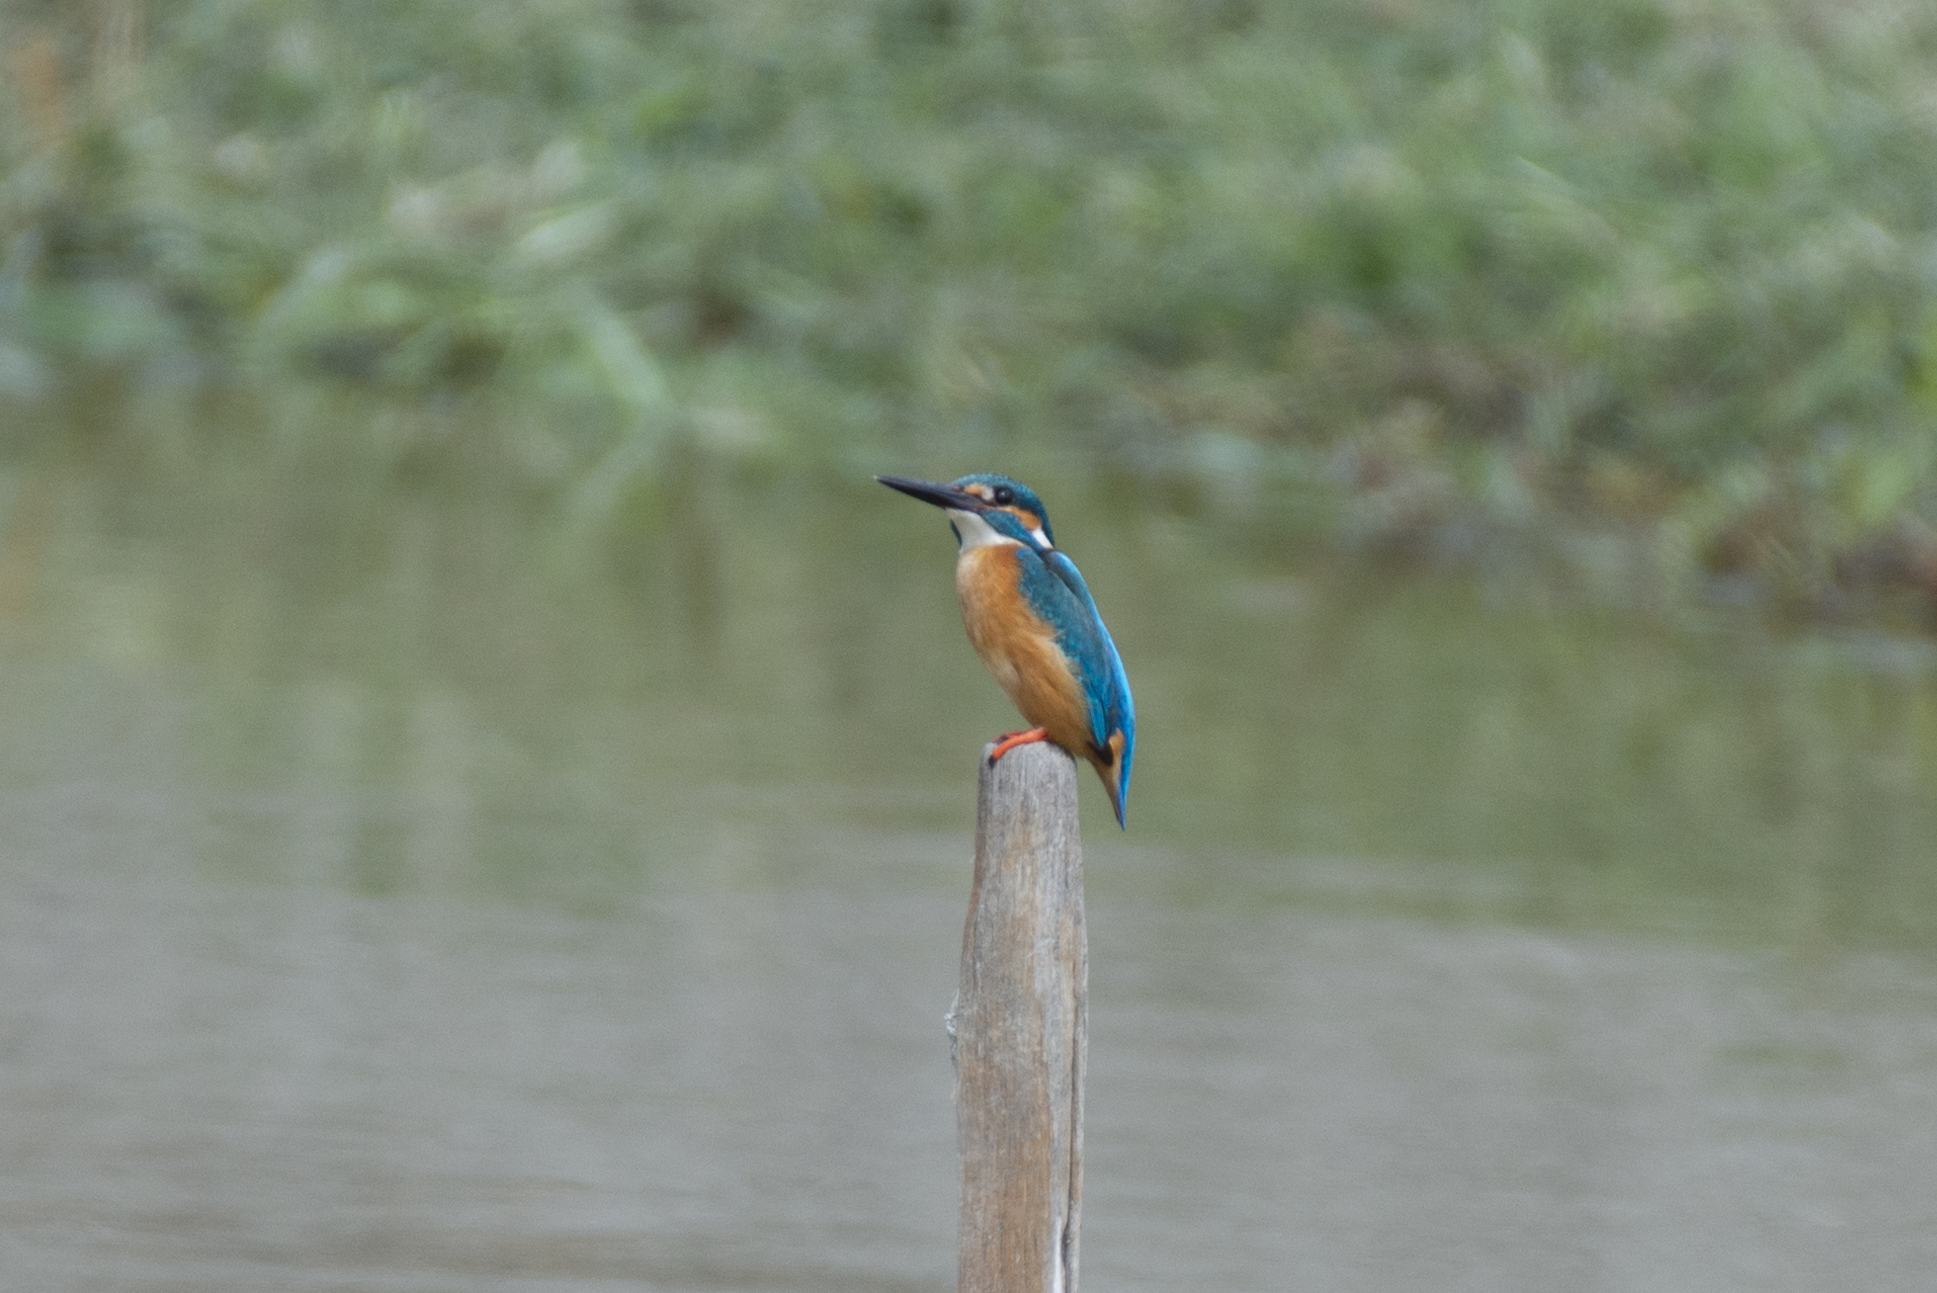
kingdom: Animalia
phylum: Chordata
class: Aves
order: Coraciiformes
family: Alcedinidae
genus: Alcedo
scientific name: Alcedo atthis
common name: Common kingfisher
